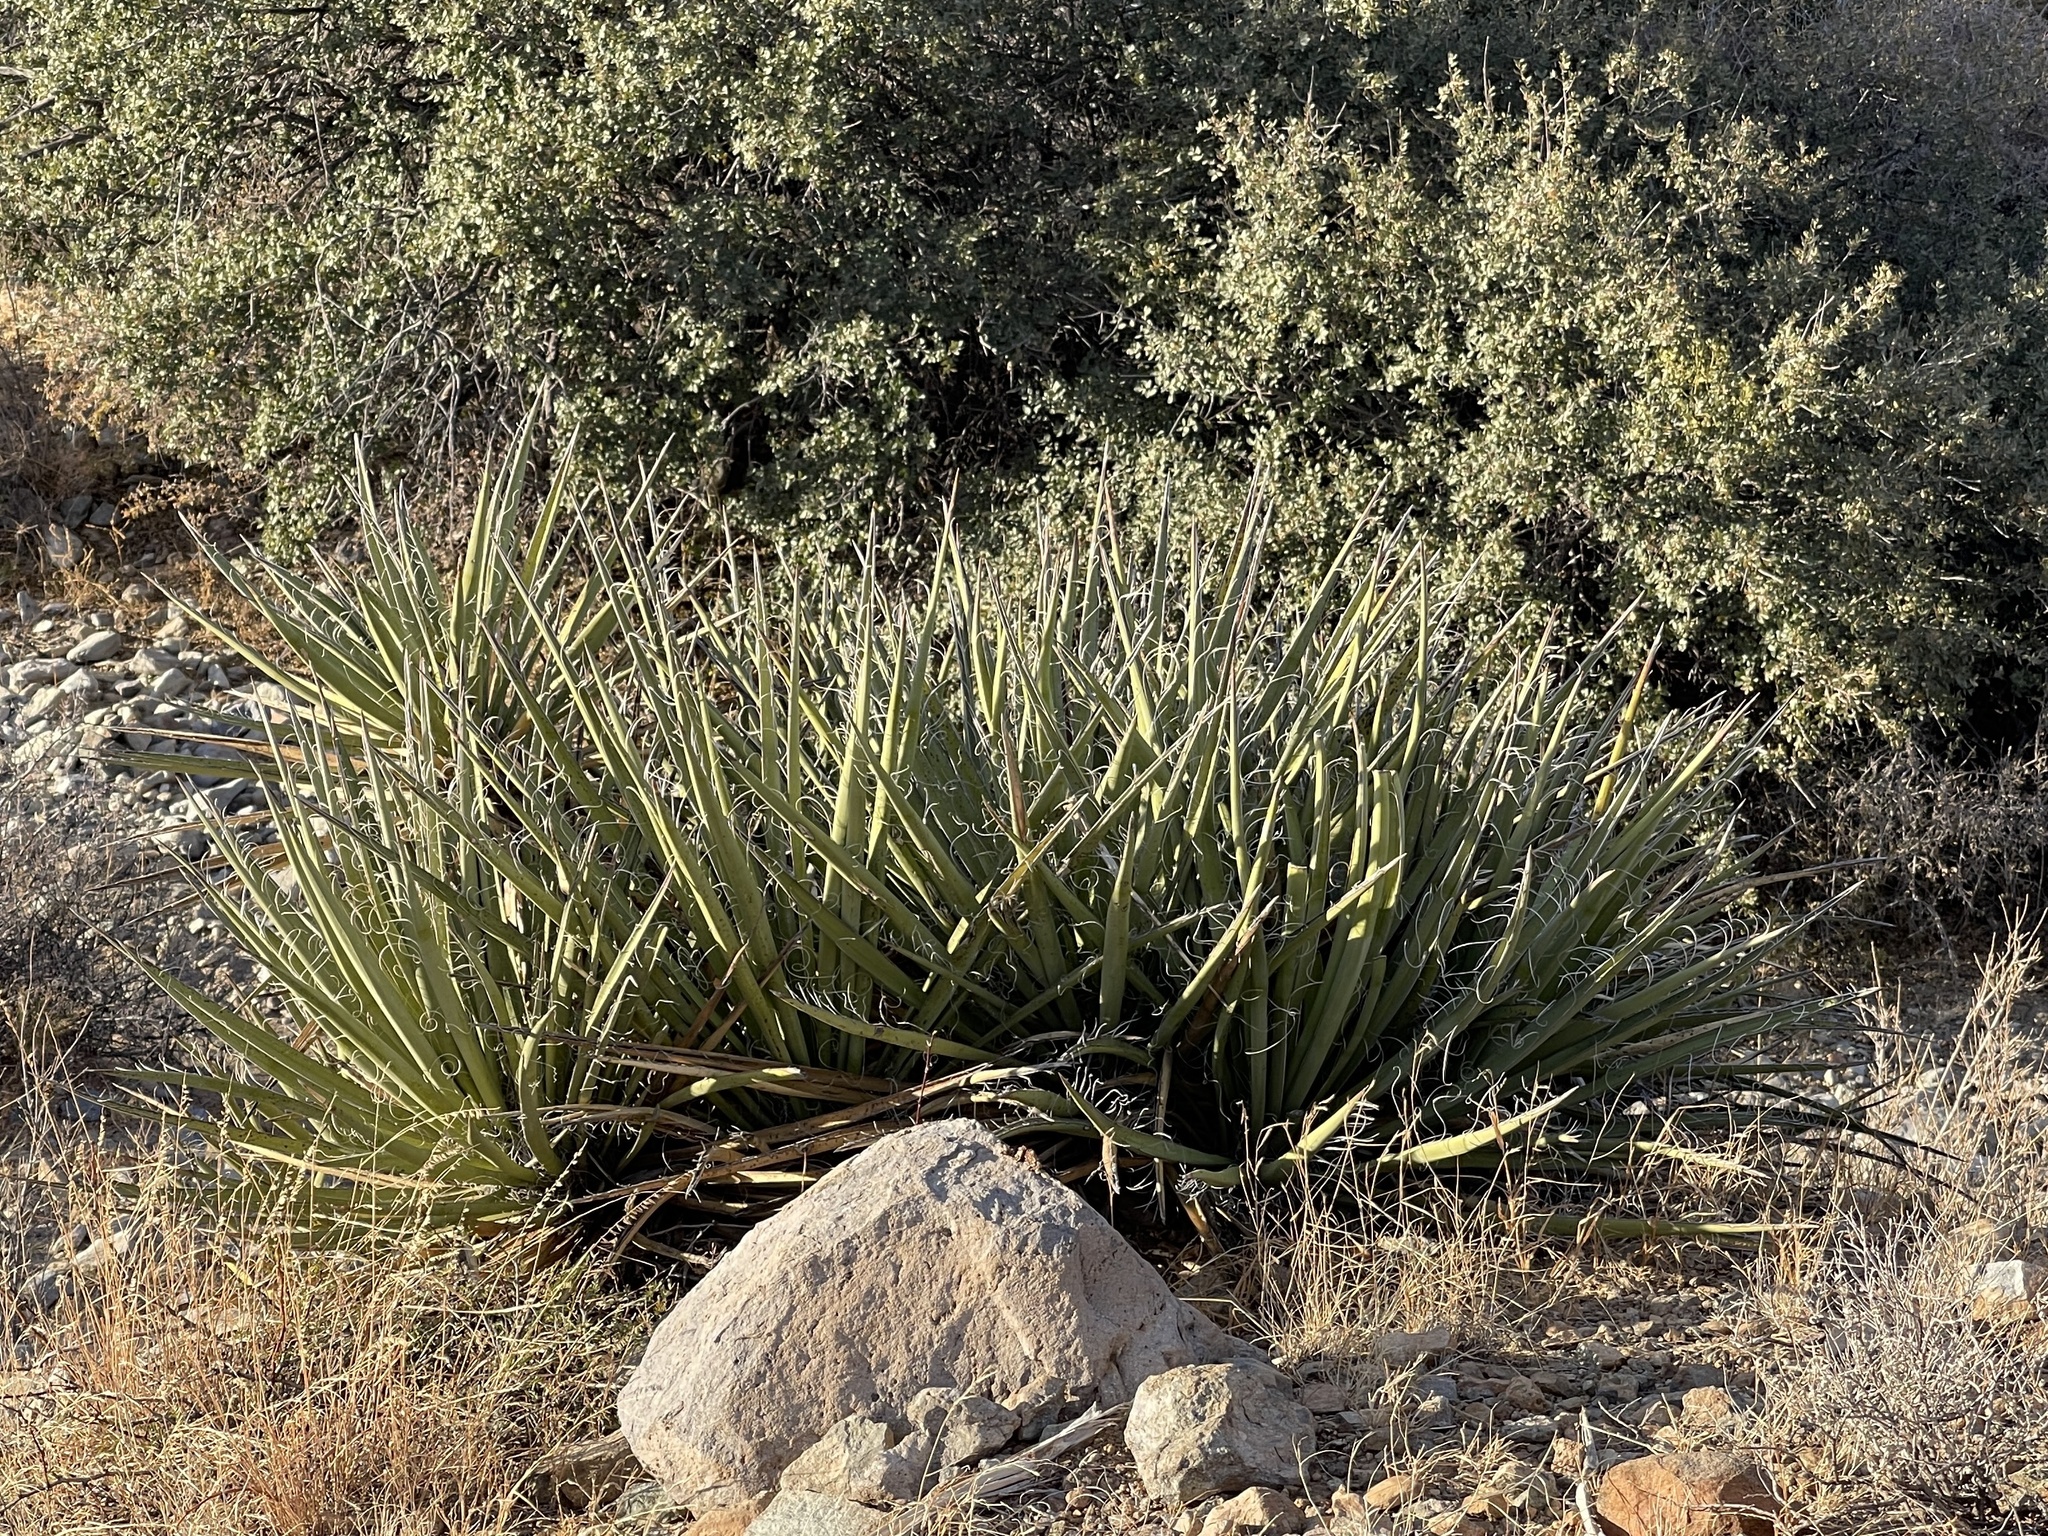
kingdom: Plantae
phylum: Tracheophyta
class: Liliopsida
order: Asparagales
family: Asparagaceae
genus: Yucca
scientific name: Yucca baccata
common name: Banana yucca
